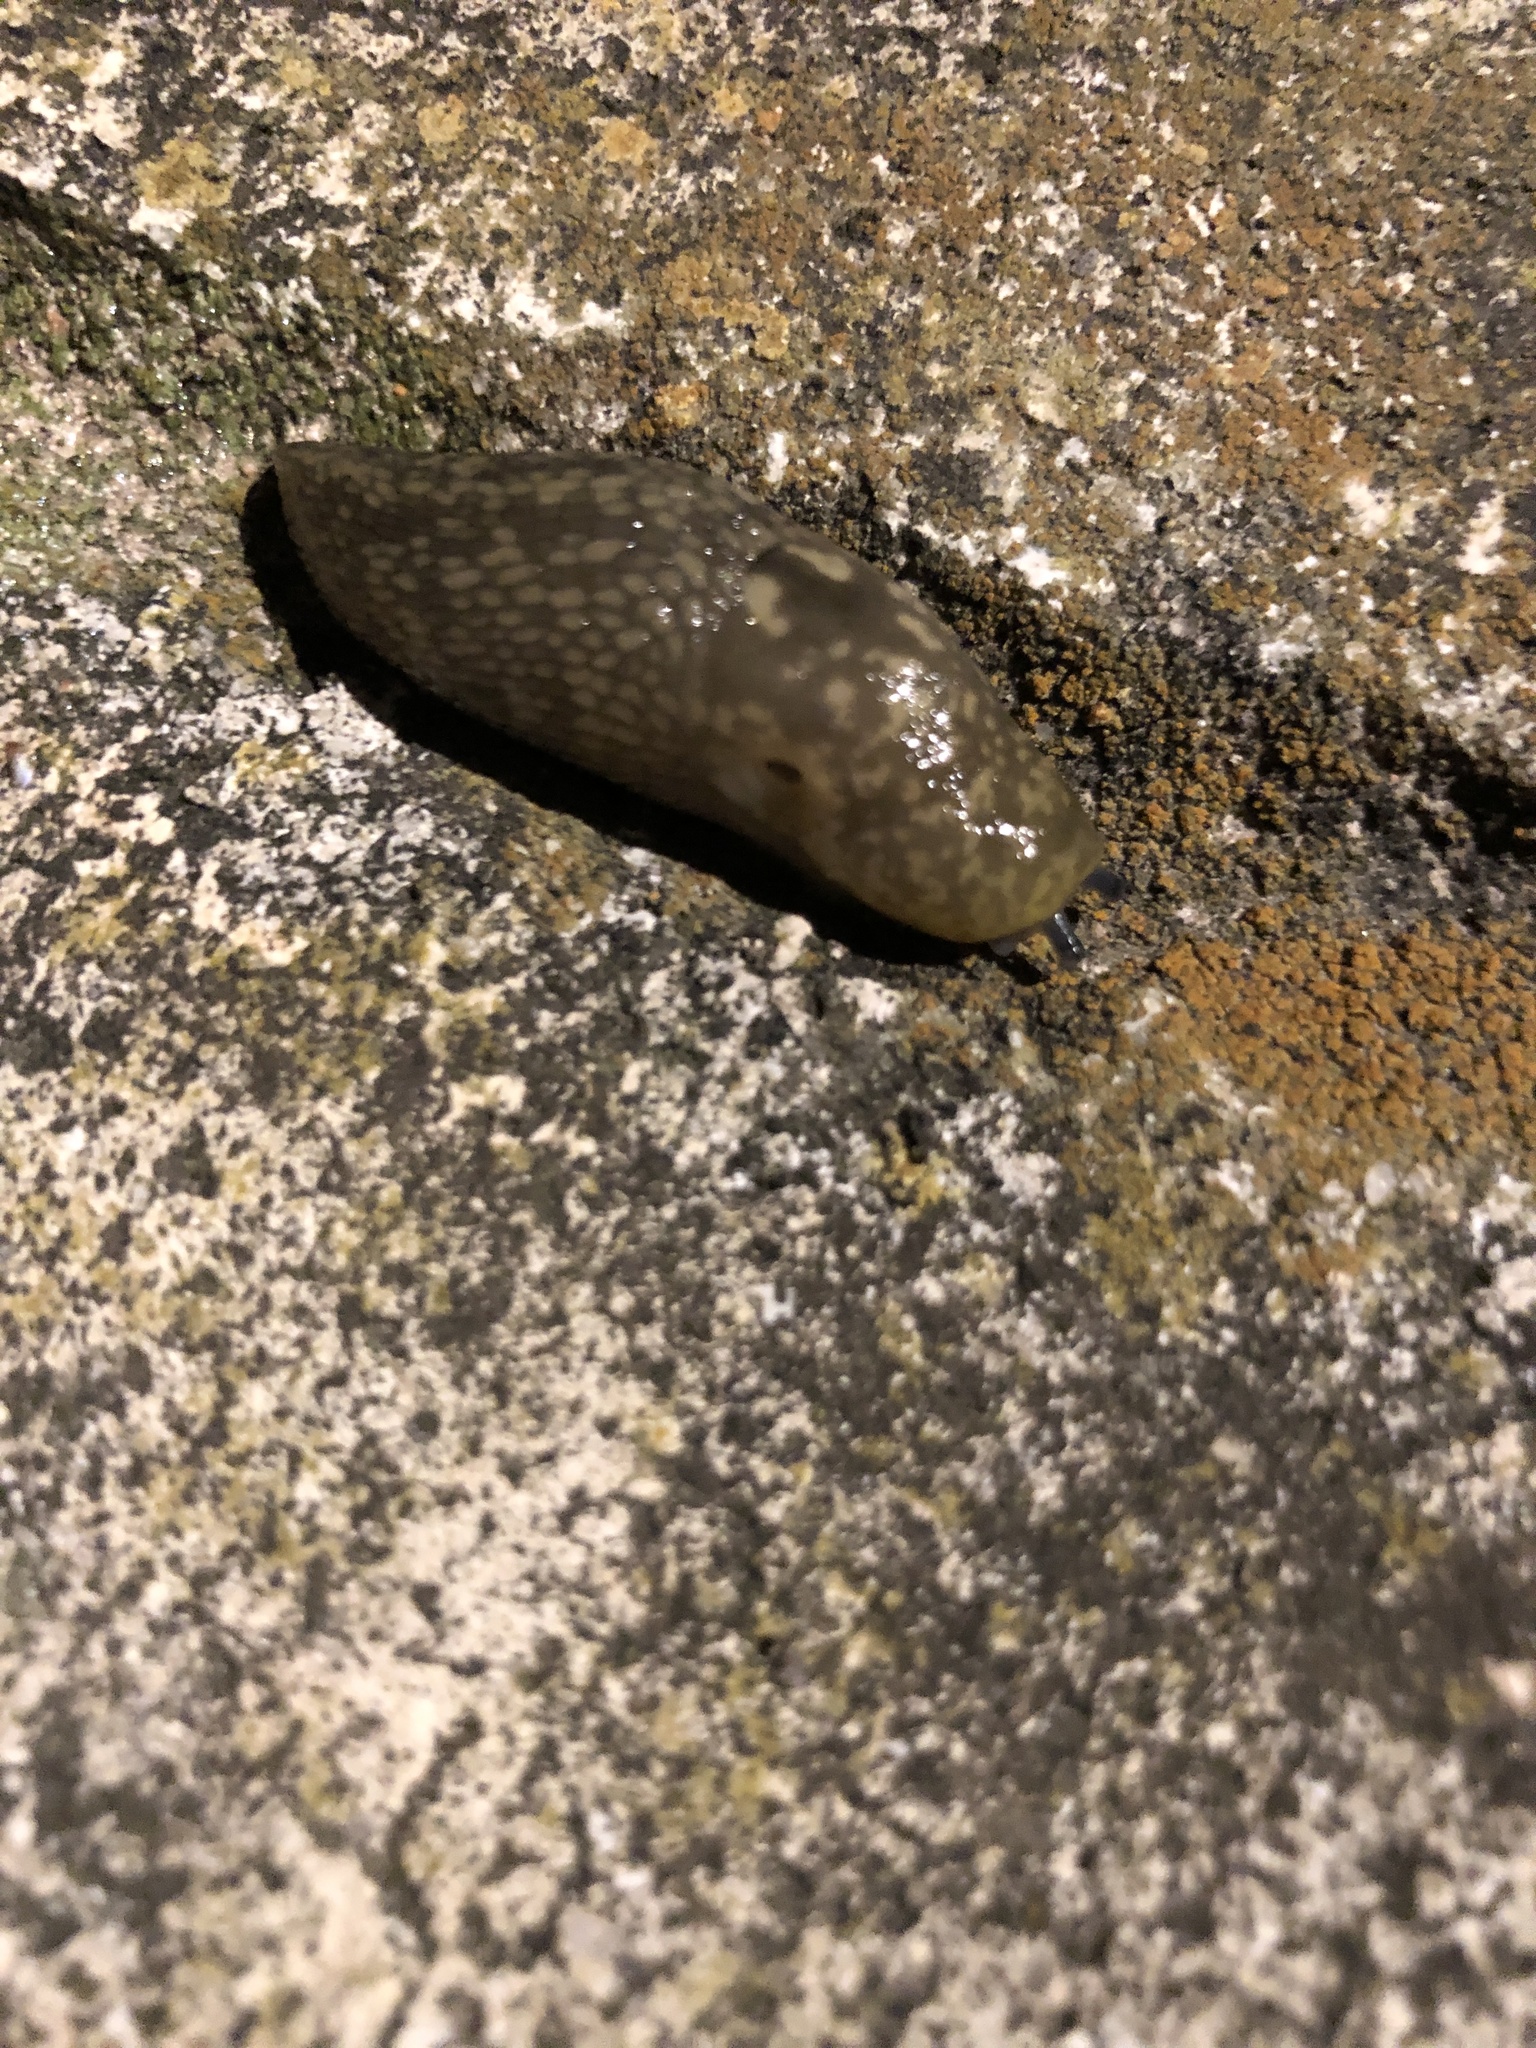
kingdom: Animalia
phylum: Mollusca
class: Gastropoda
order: Stylommatophora
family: Limacidae
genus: Limacus
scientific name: Limacus flavus
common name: Yellow gardenslug
